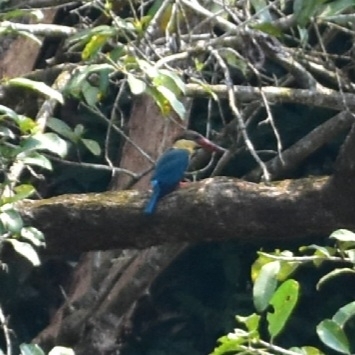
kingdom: Animalia
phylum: Chordata
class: Aves
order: Coraciiformes
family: Alcedinidae
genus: Pelargopsis
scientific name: Pelargopsis capensis
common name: Stork-billed kingfisher
